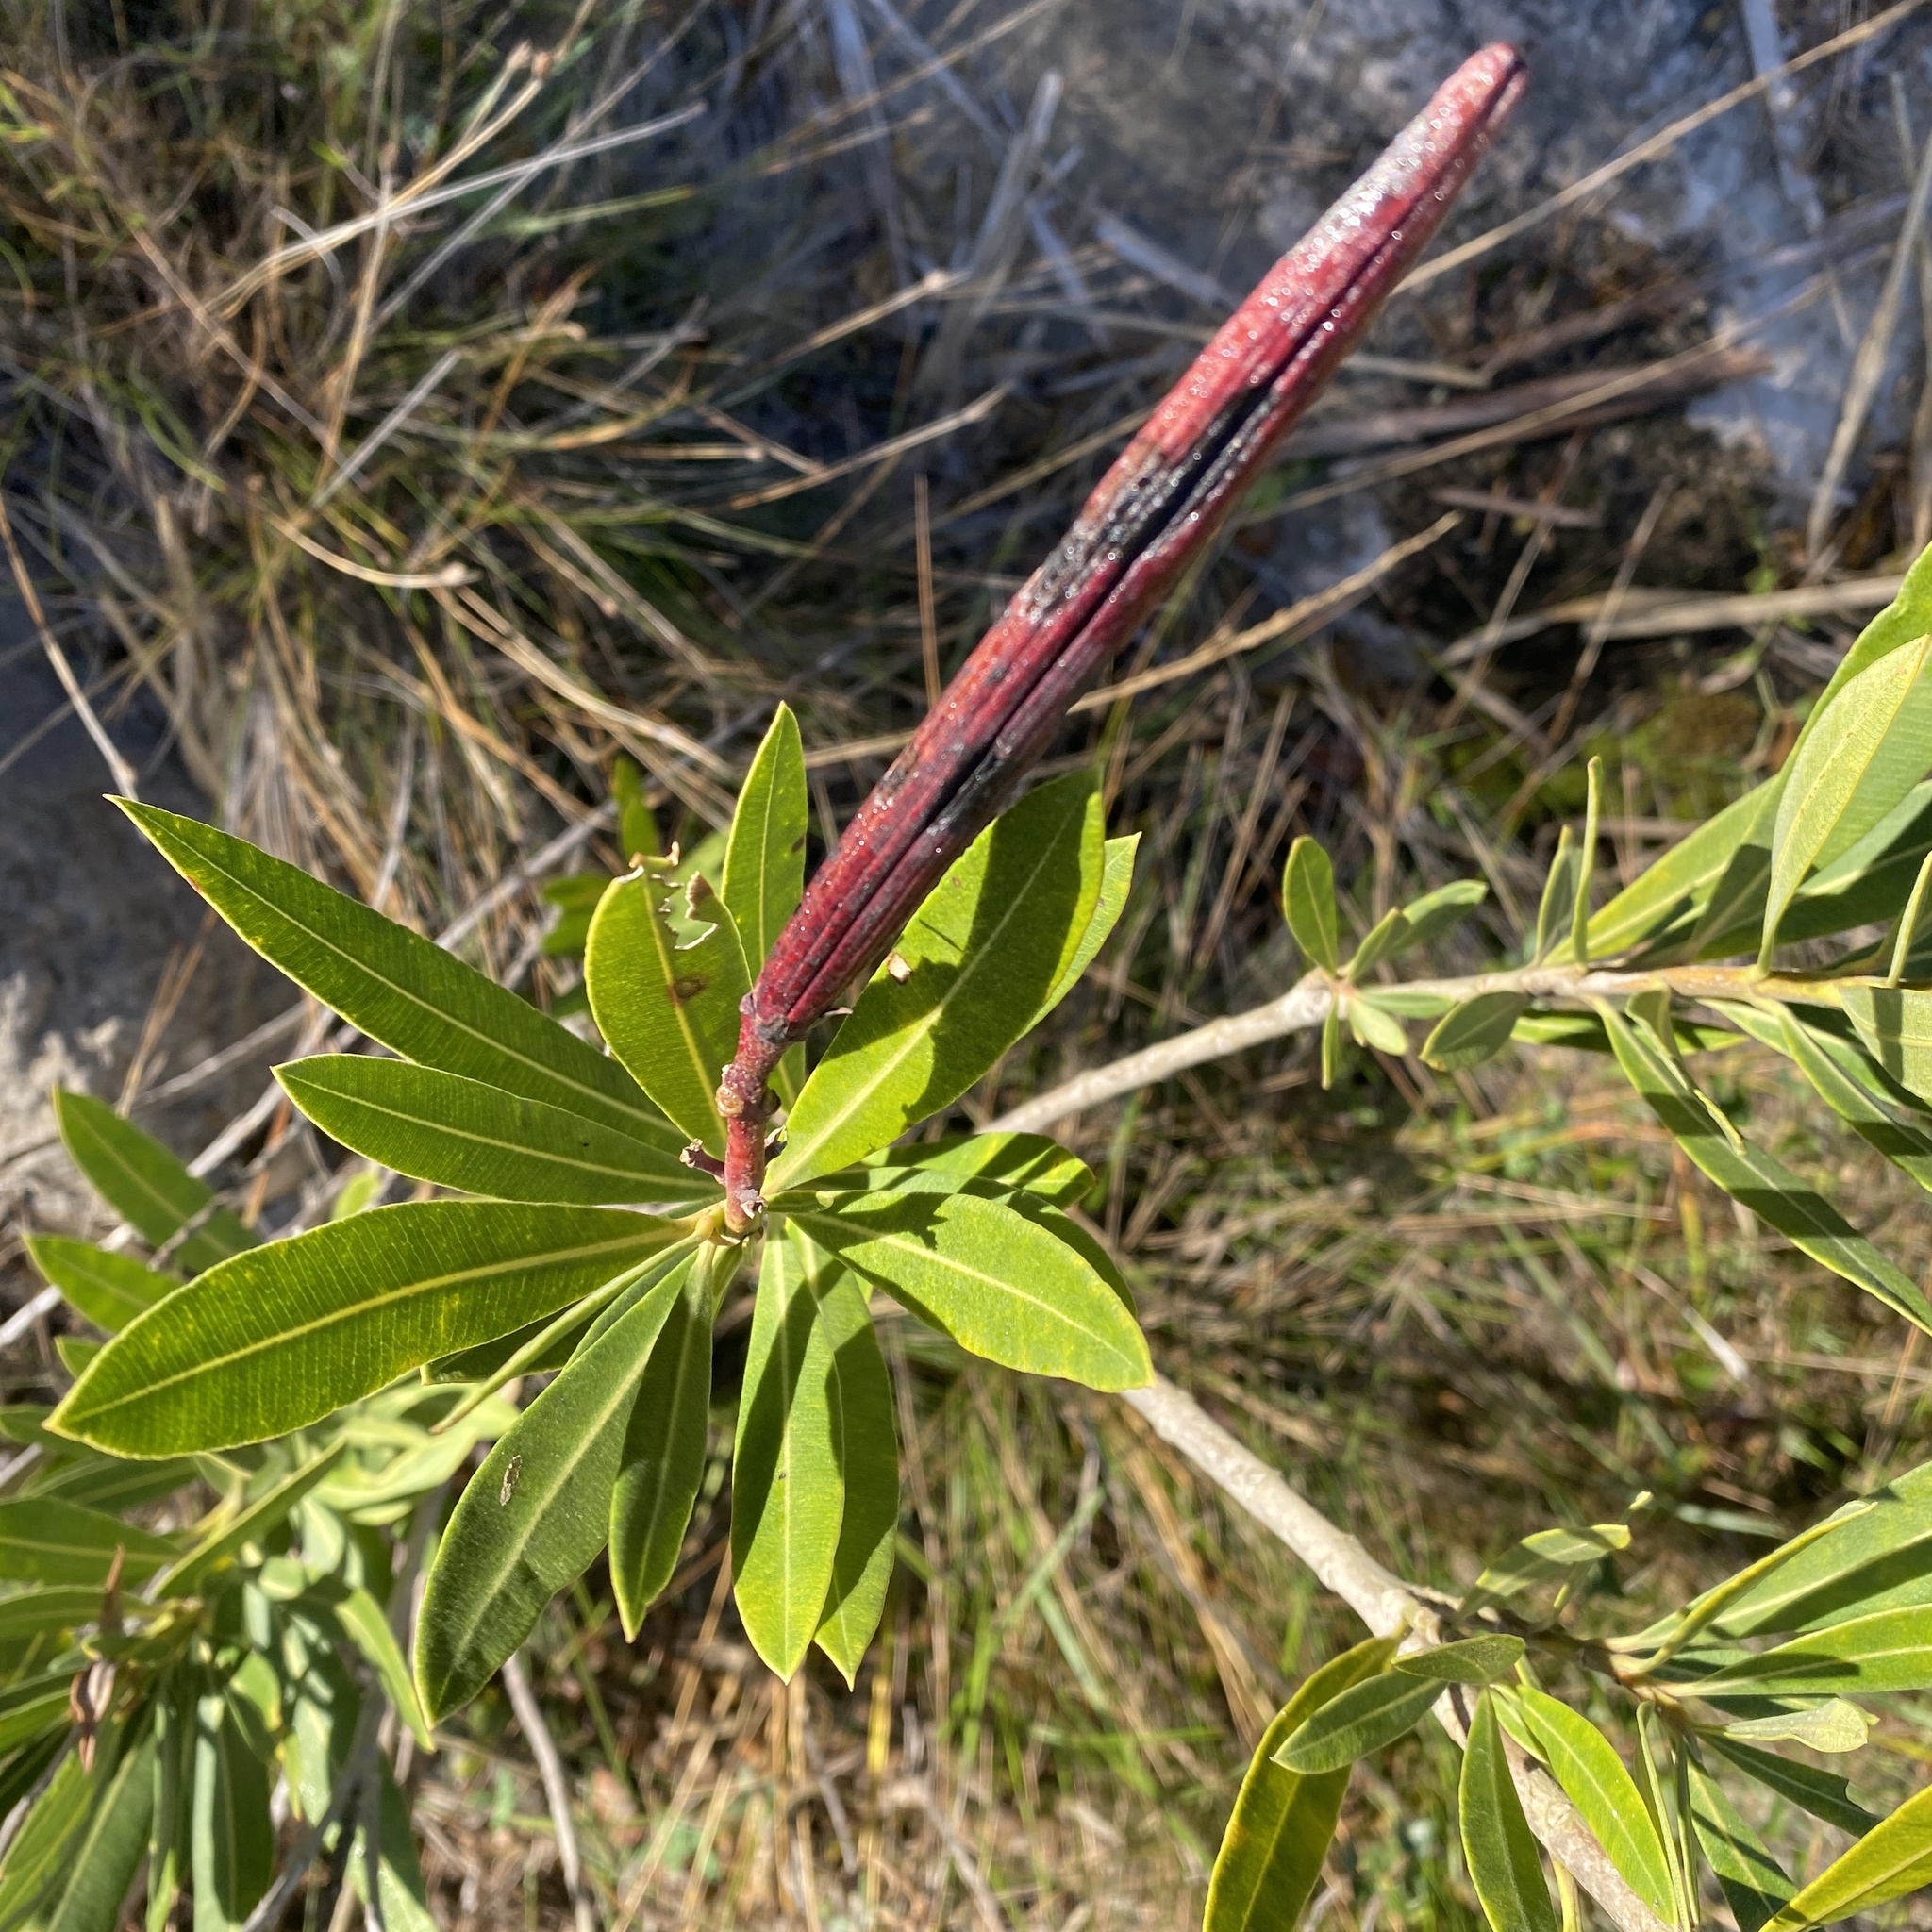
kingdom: Plantae
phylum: Tracheophyta
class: Magnoliopsida
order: Gentianales
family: Apocynaceae
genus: Nerium
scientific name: Nerium oleander
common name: Oleander
